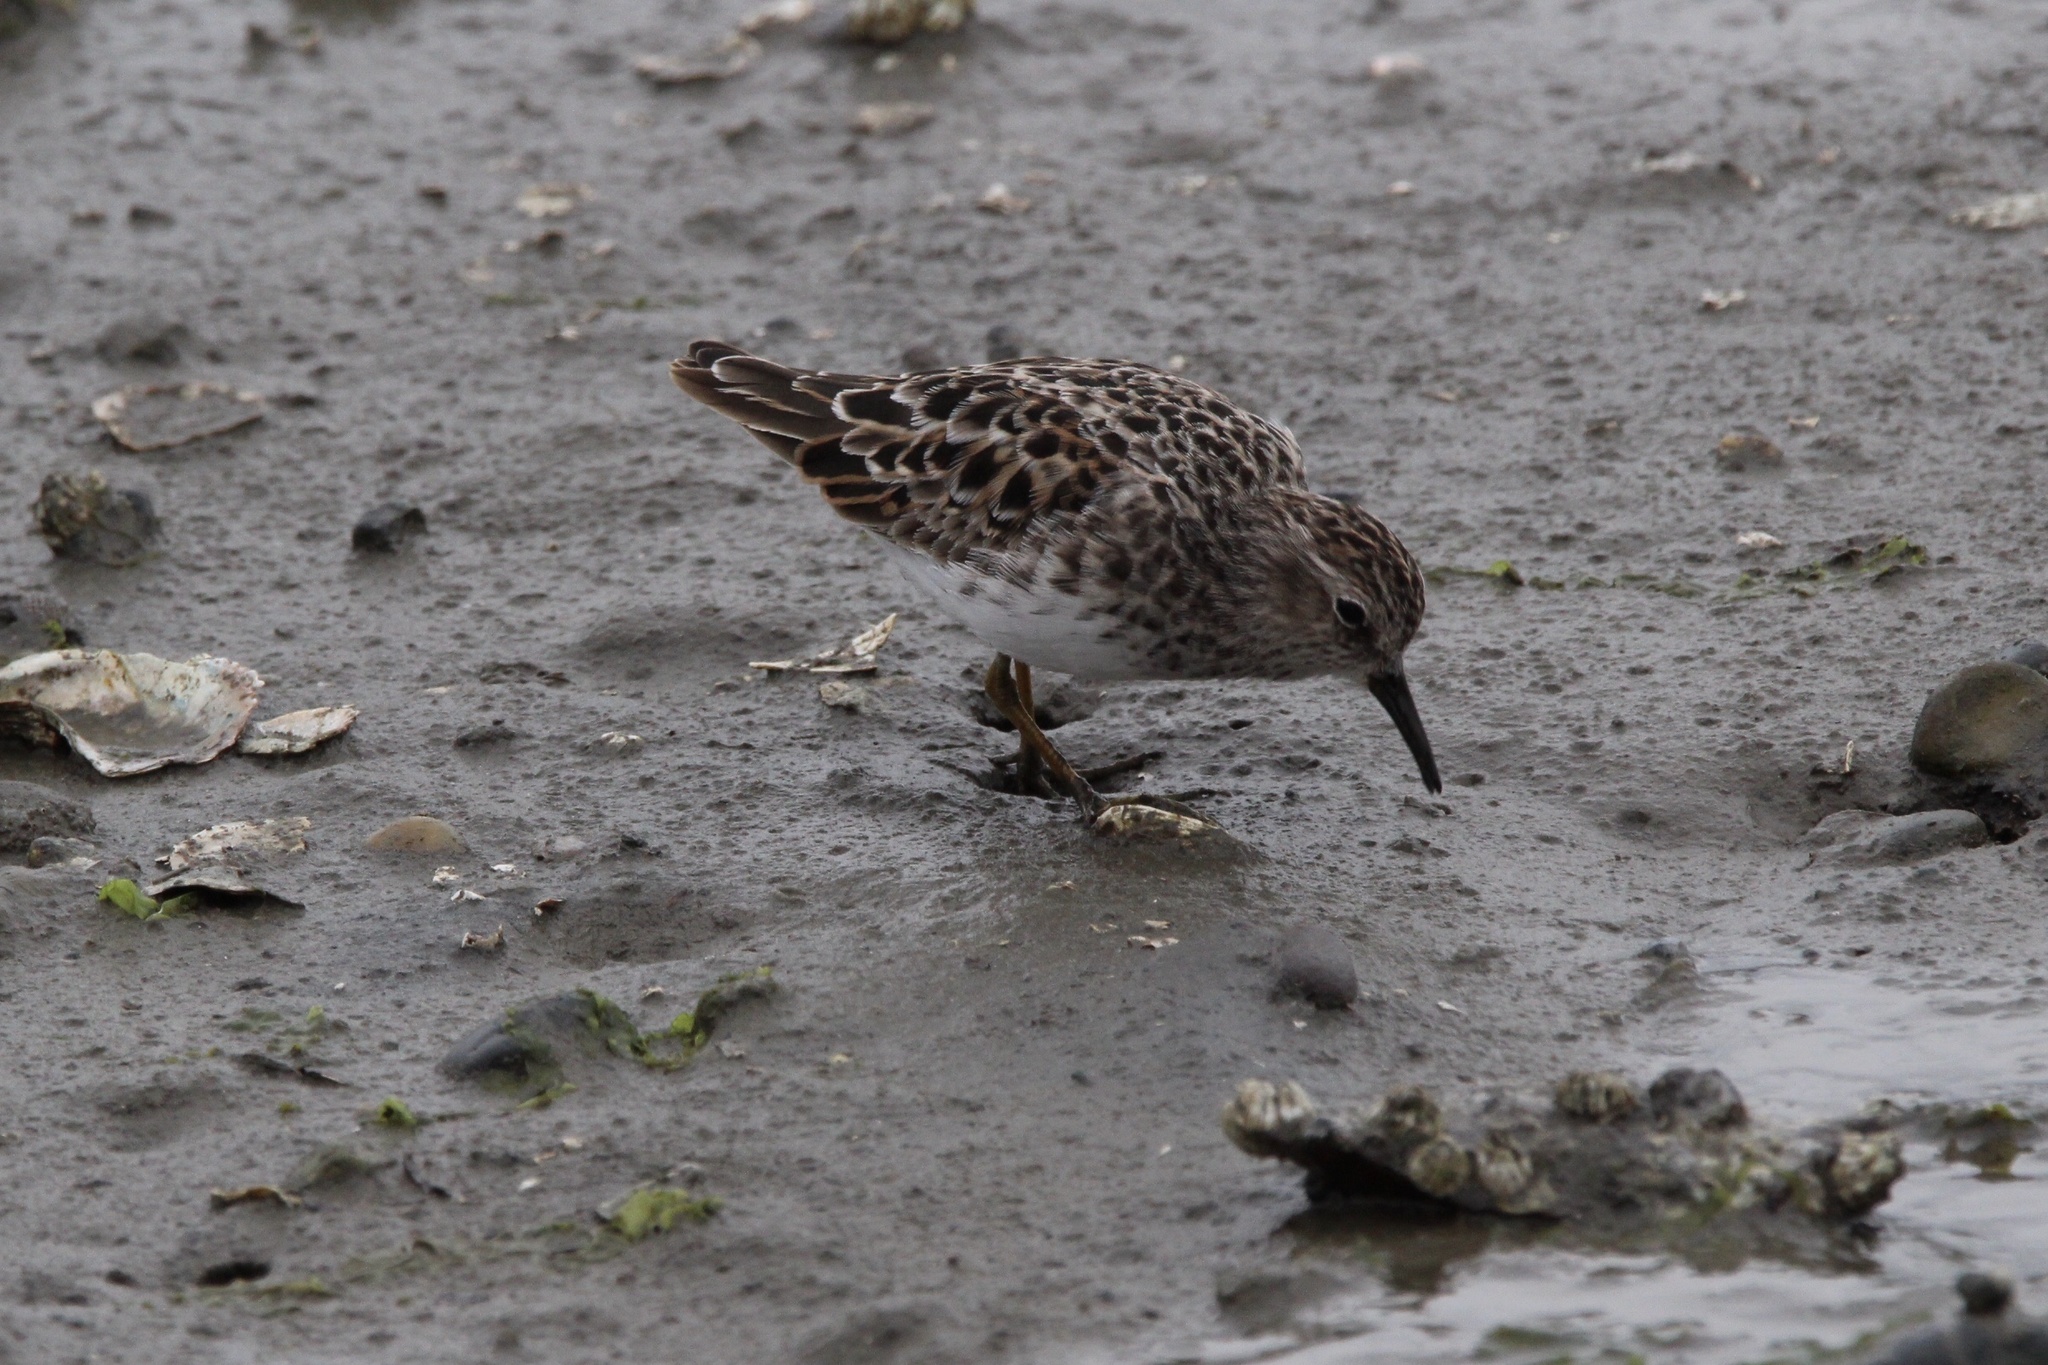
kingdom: Animalia
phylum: Chordata
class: Aves
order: Charadriiformes
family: Scolopacidae
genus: Calidris
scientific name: Calidris minutilla
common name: Least sandpiper
